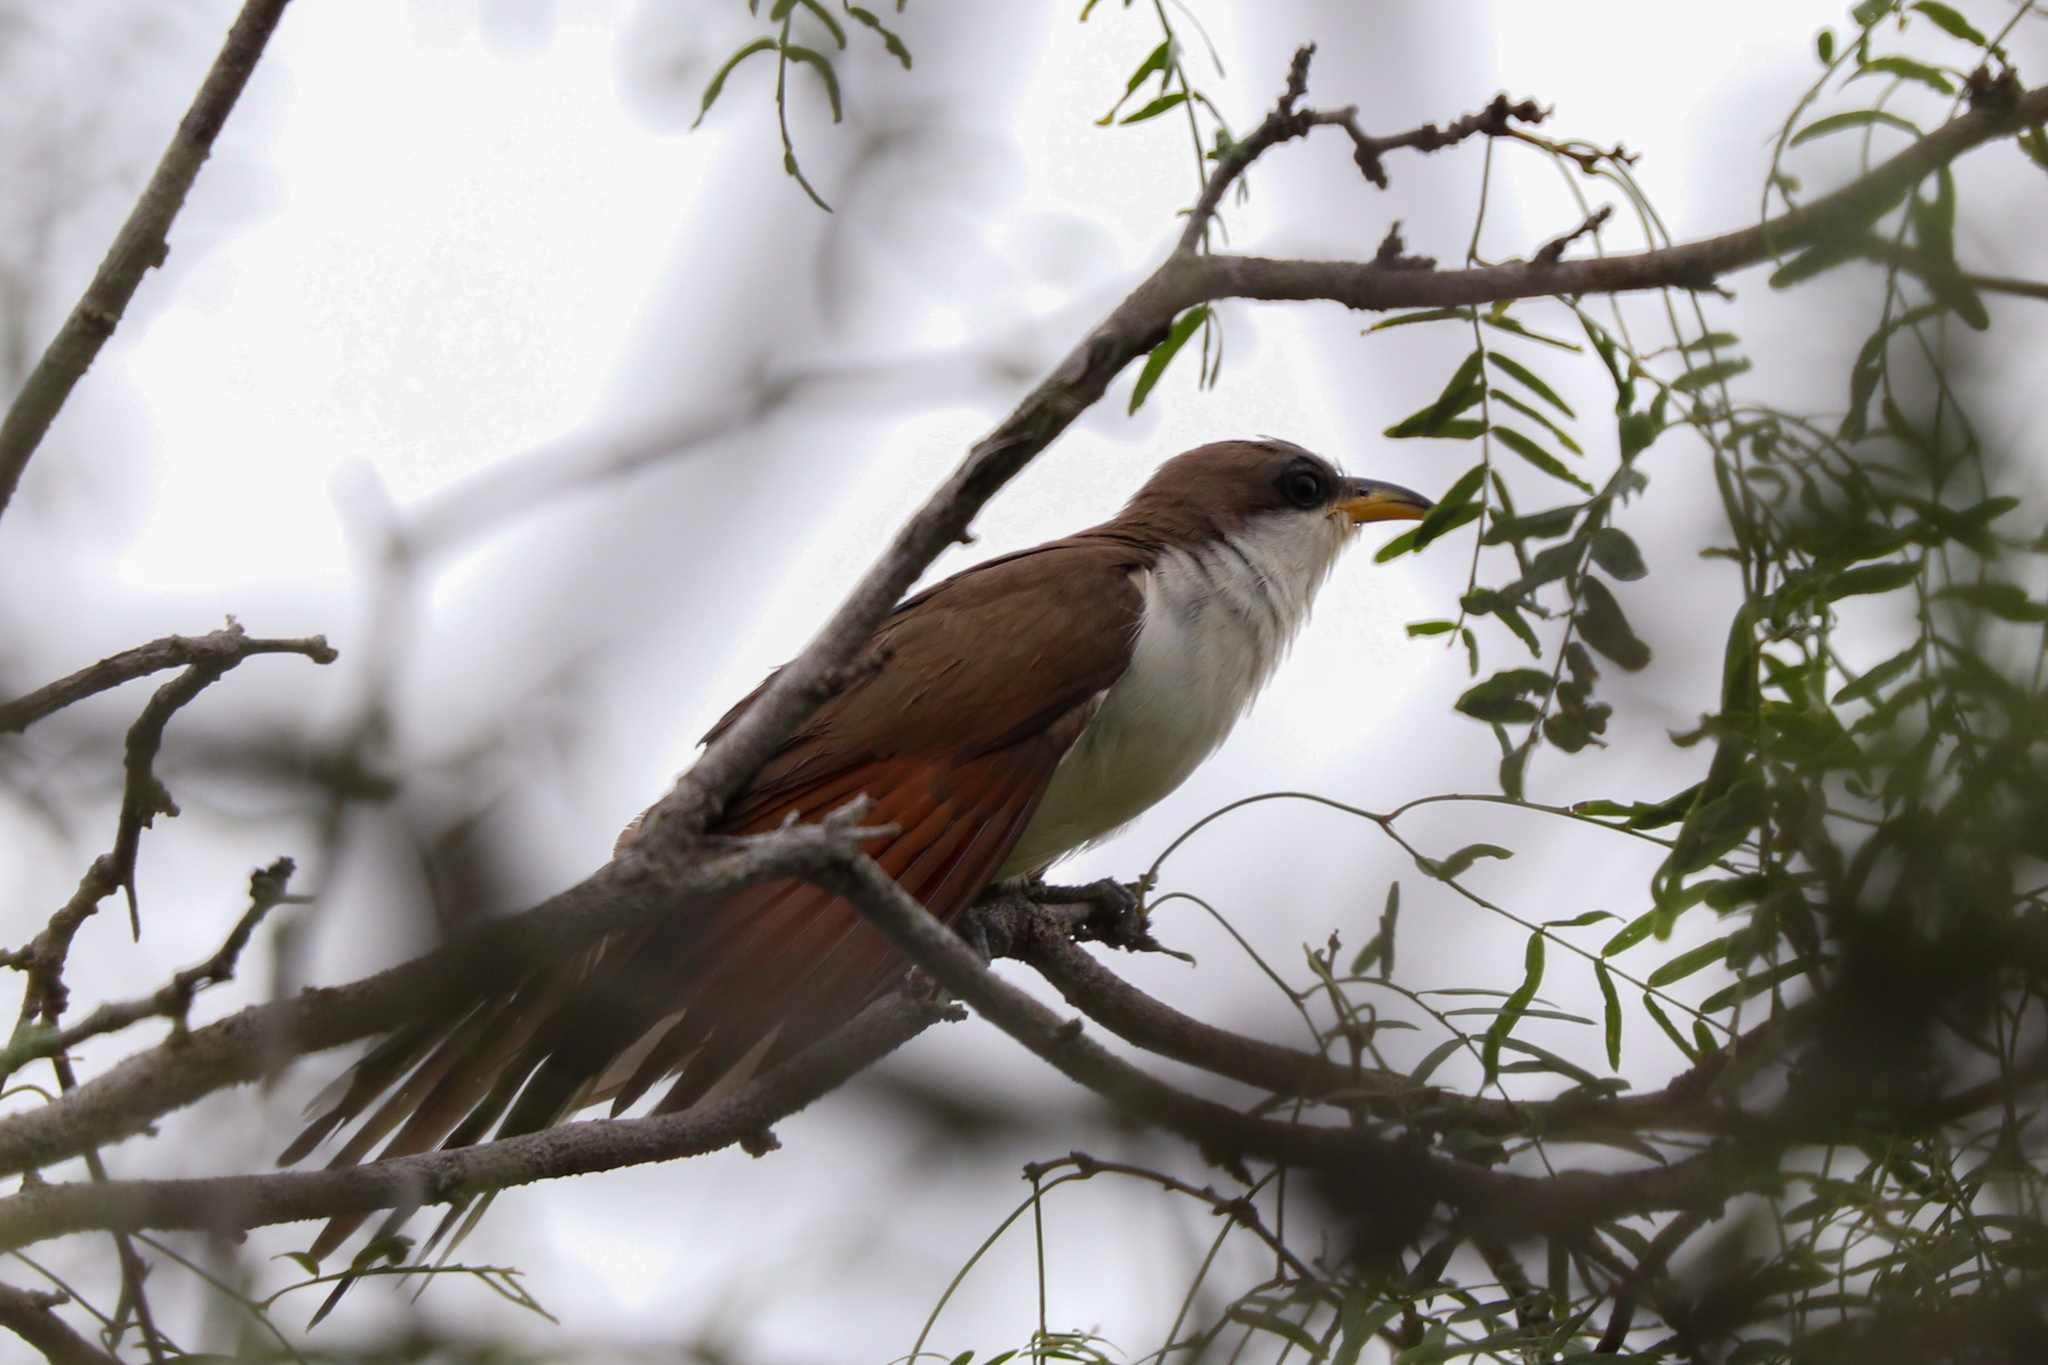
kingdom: Animalia
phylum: Chordata
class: Aves
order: Cuculiformes
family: Cuculidae
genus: Coccyzus
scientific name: Coccyzus americanus
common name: Yellow-billed cuckoo
